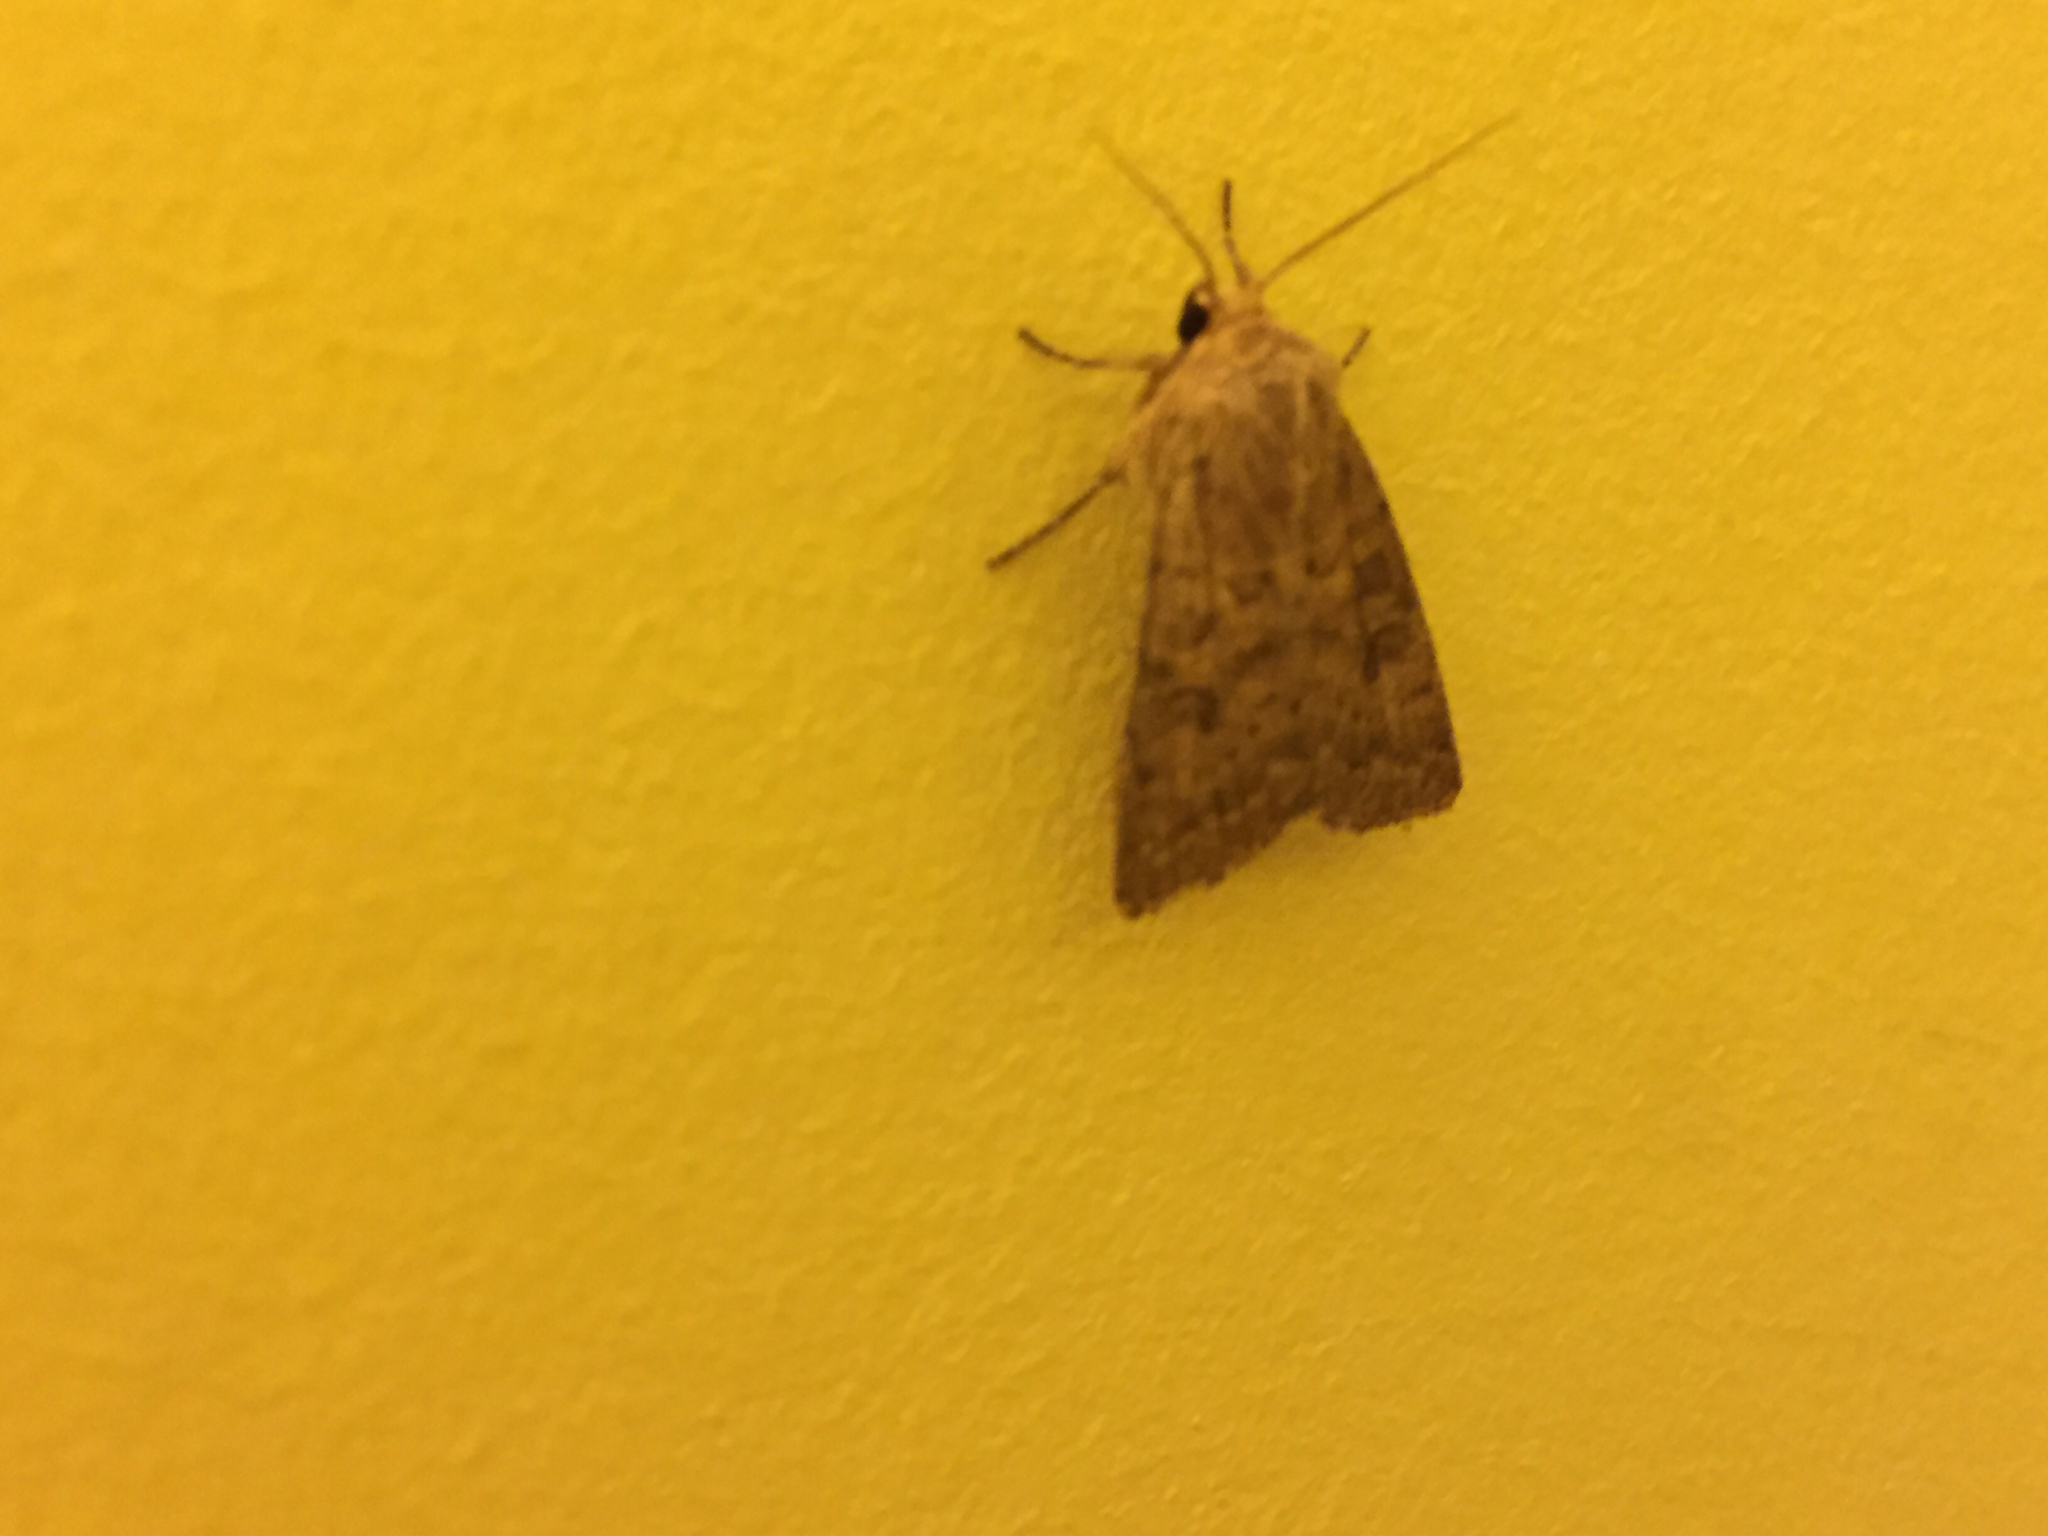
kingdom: Animalia
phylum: Arthropoda
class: Insecta
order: Lepidoptera
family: Noctuidae
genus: Hoplodrina
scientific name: Hoplodrina octogenaria
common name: Uncertain
